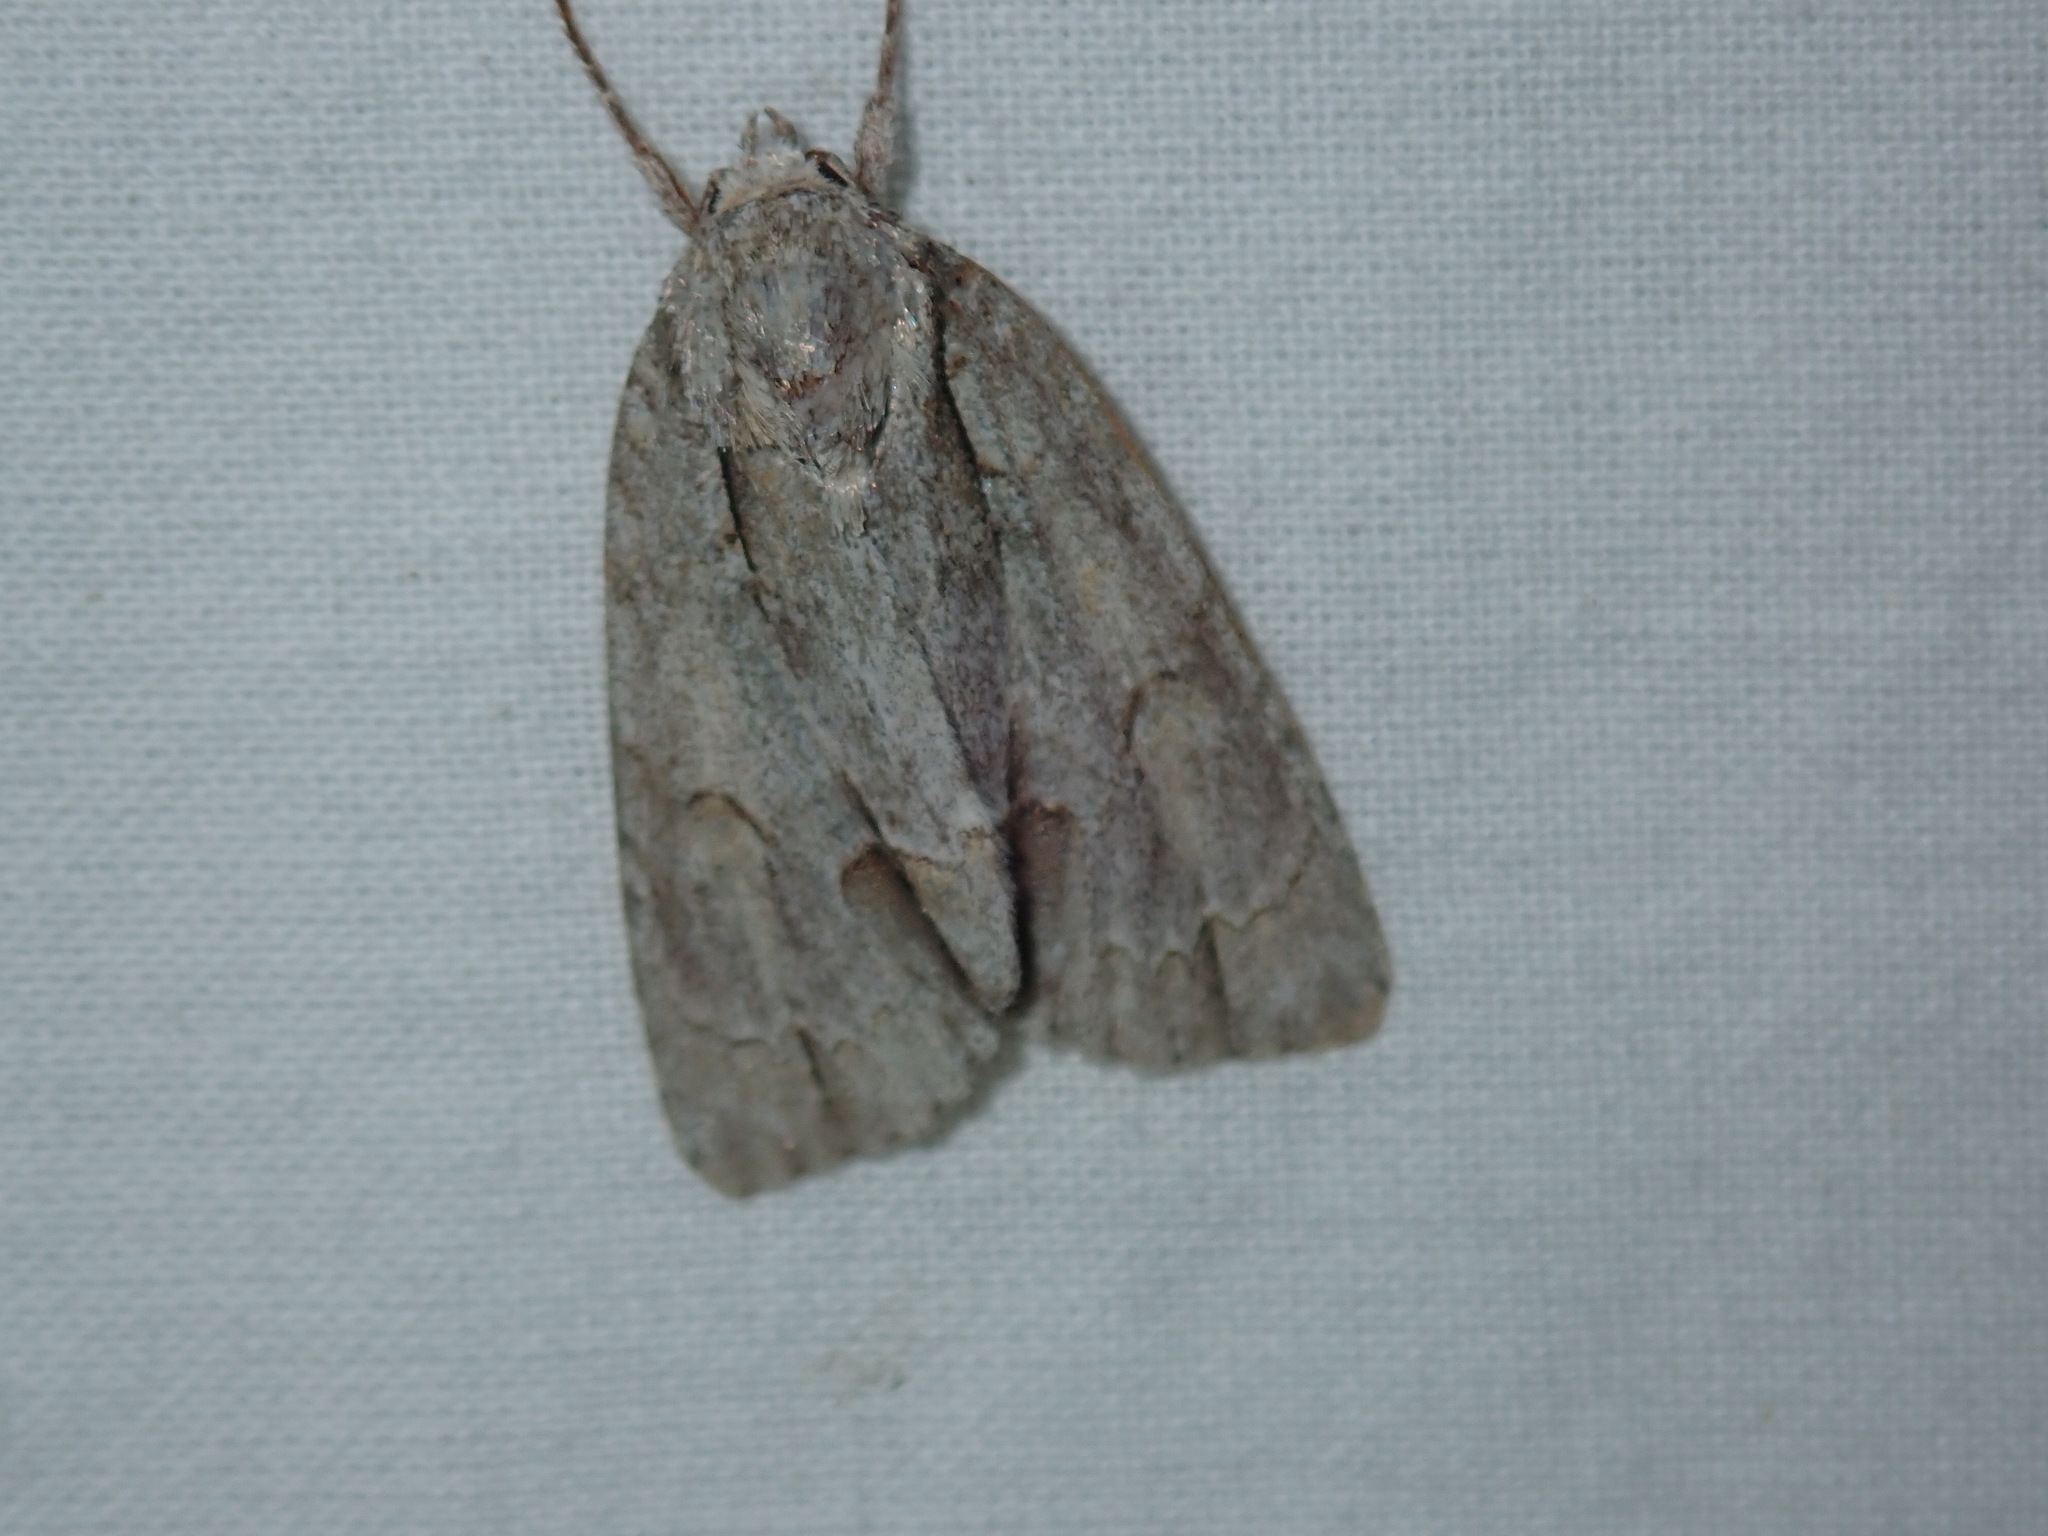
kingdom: Animalia
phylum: Arthropoda
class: Insecta
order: Lepidoptera
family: Noctuidae
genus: Acronicta
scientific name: Acronicta morula
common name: Ochre dagger
